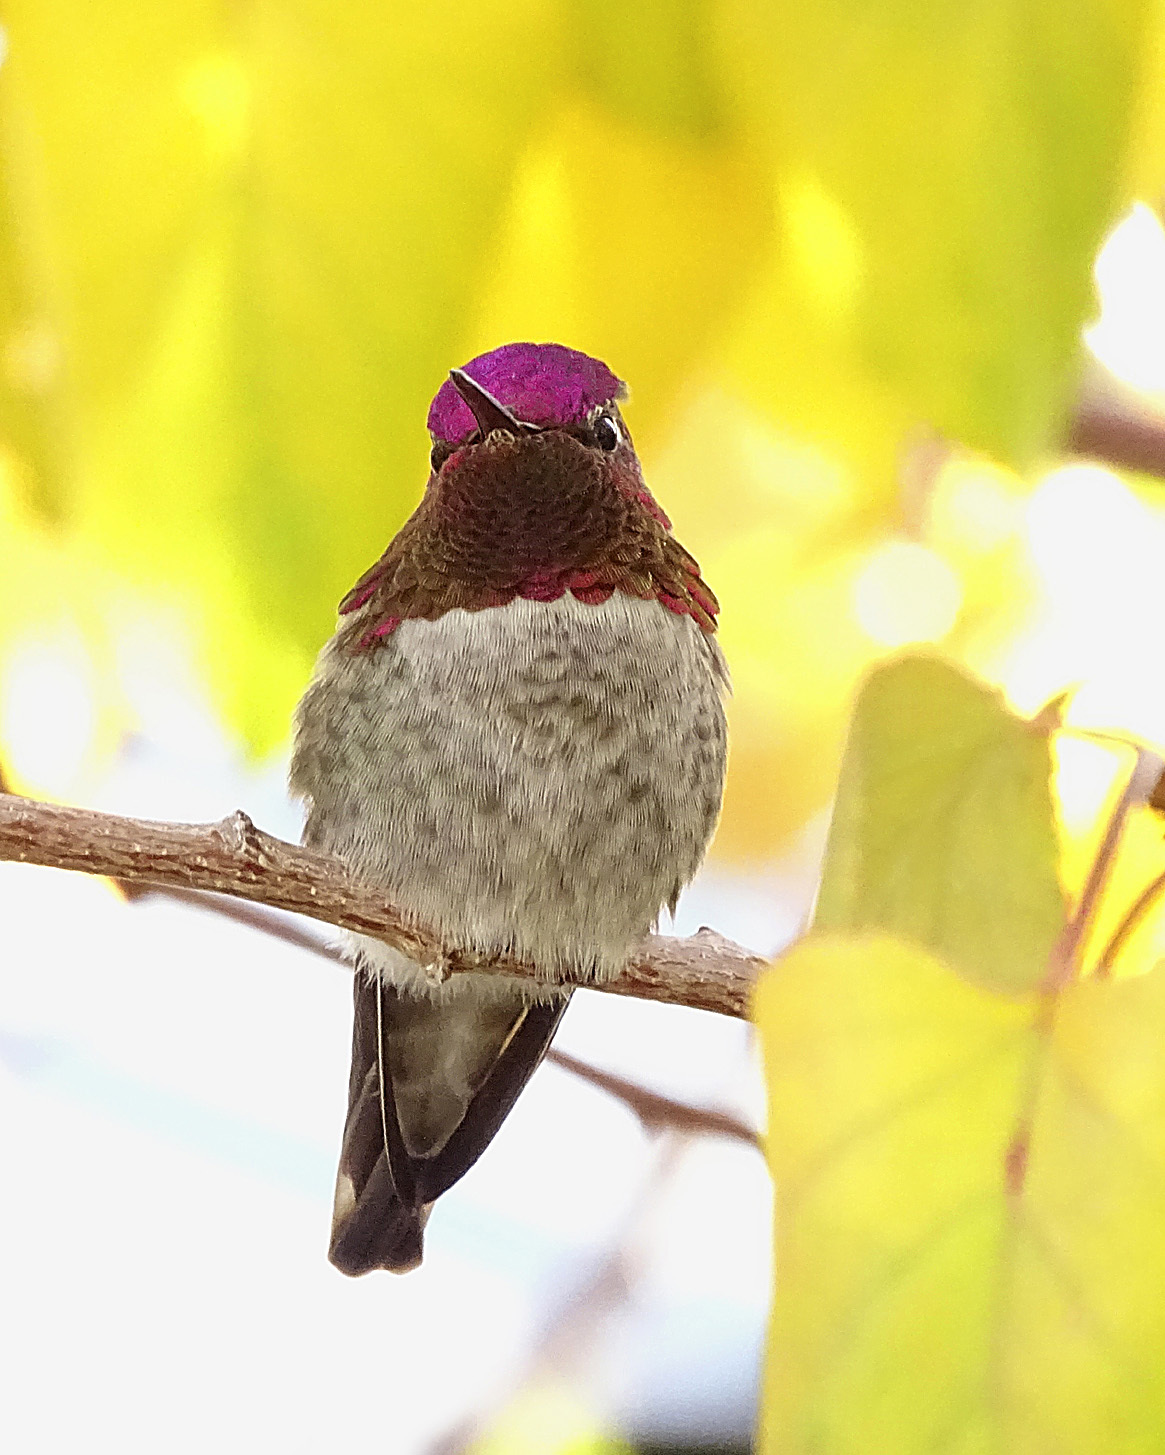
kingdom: Animalia
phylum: Chordata
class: Aves
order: Apodiformes
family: Trochilidae
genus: Calypte
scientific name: Calypte anna
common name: Anna's hummingbird
